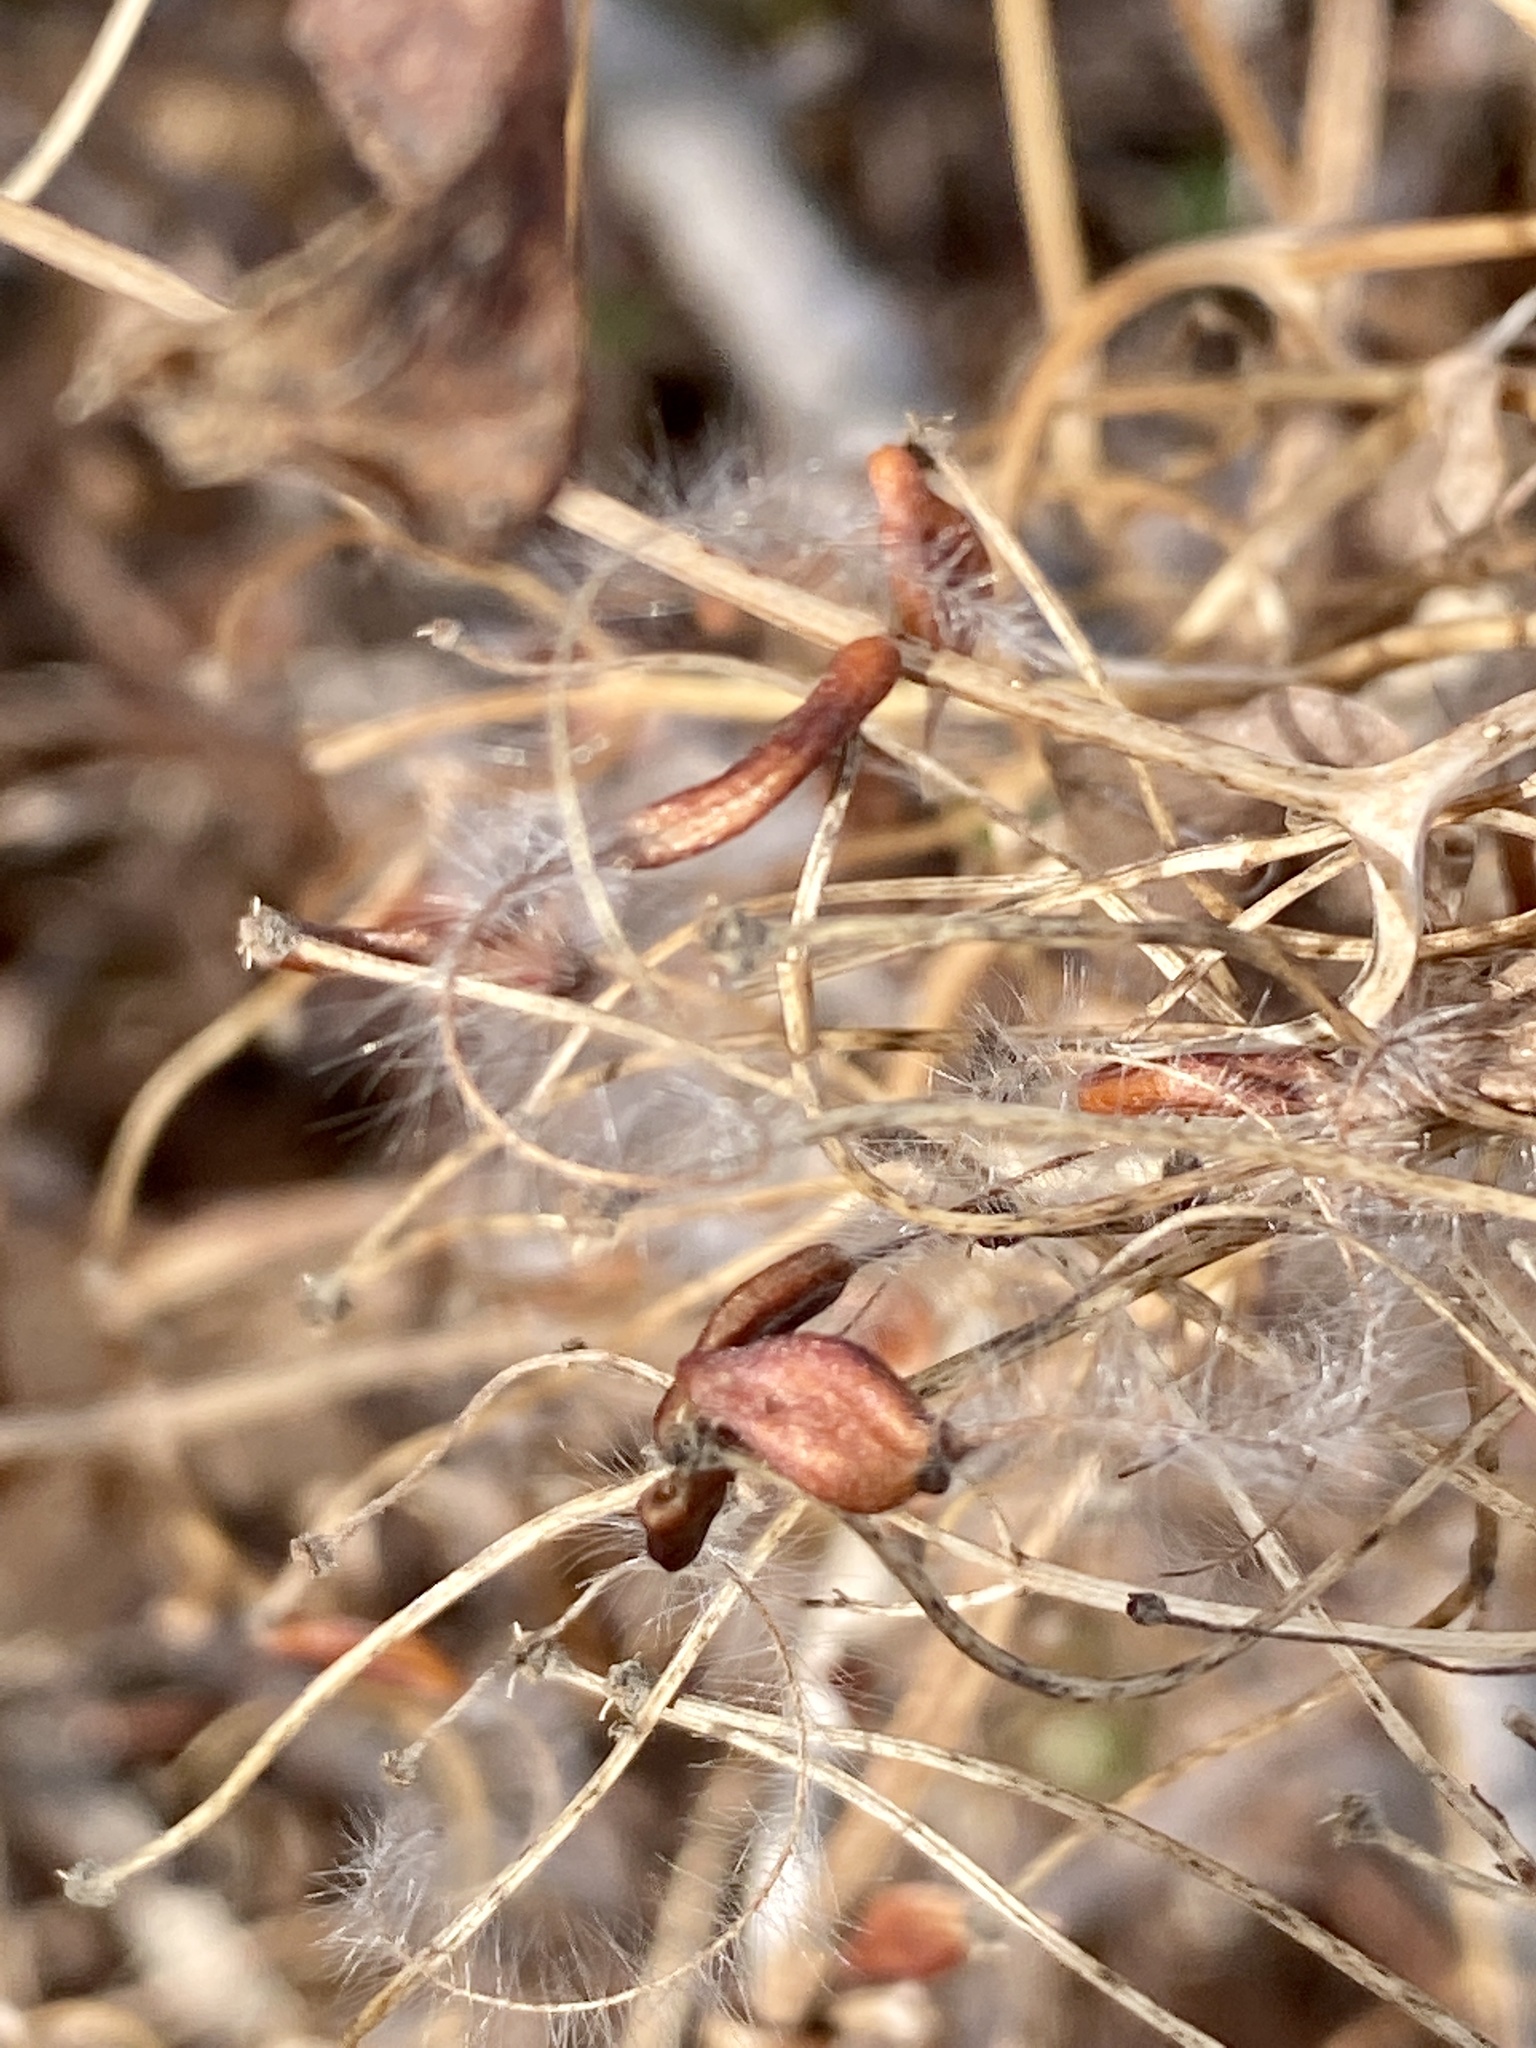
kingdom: Plantae
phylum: Tracheophyta
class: Magnoliopsida
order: Ranunculales
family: Ranunculaceae
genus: Clematis
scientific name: Clematis terniflora
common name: Sweet autumn clematis
